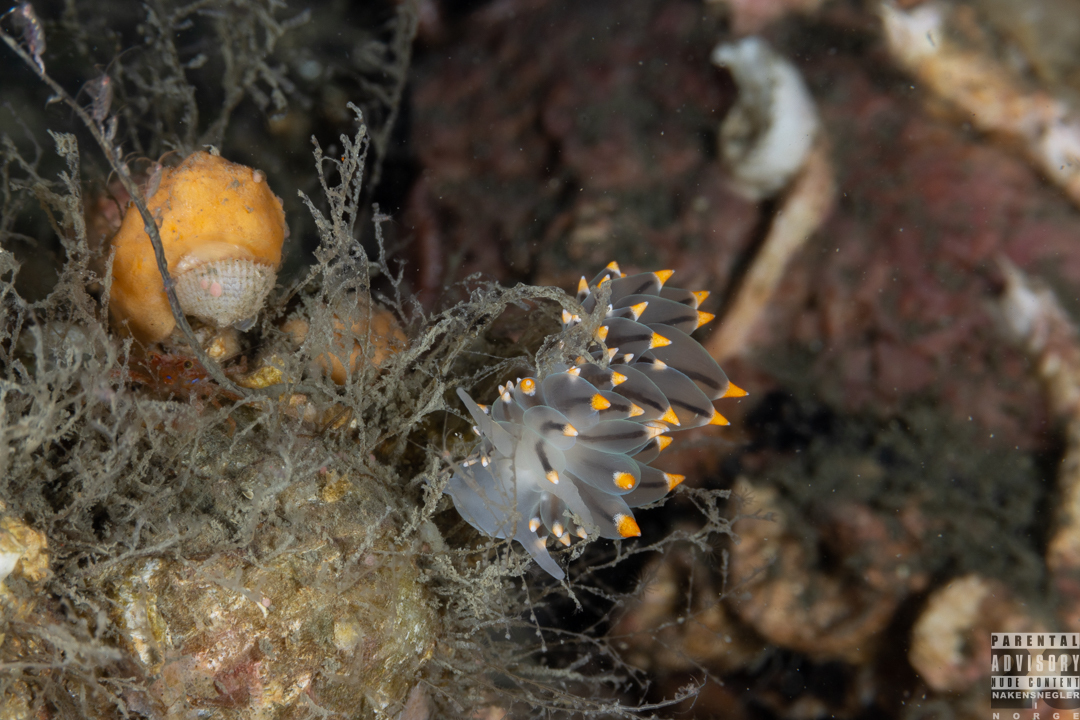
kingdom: Animalia
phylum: Mollusca
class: Gastropoda
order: Nudibranchia
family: Eubranchidae
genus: Eubranchus
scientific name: Eubranchus tricolor
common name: Painted balloon aeolis
